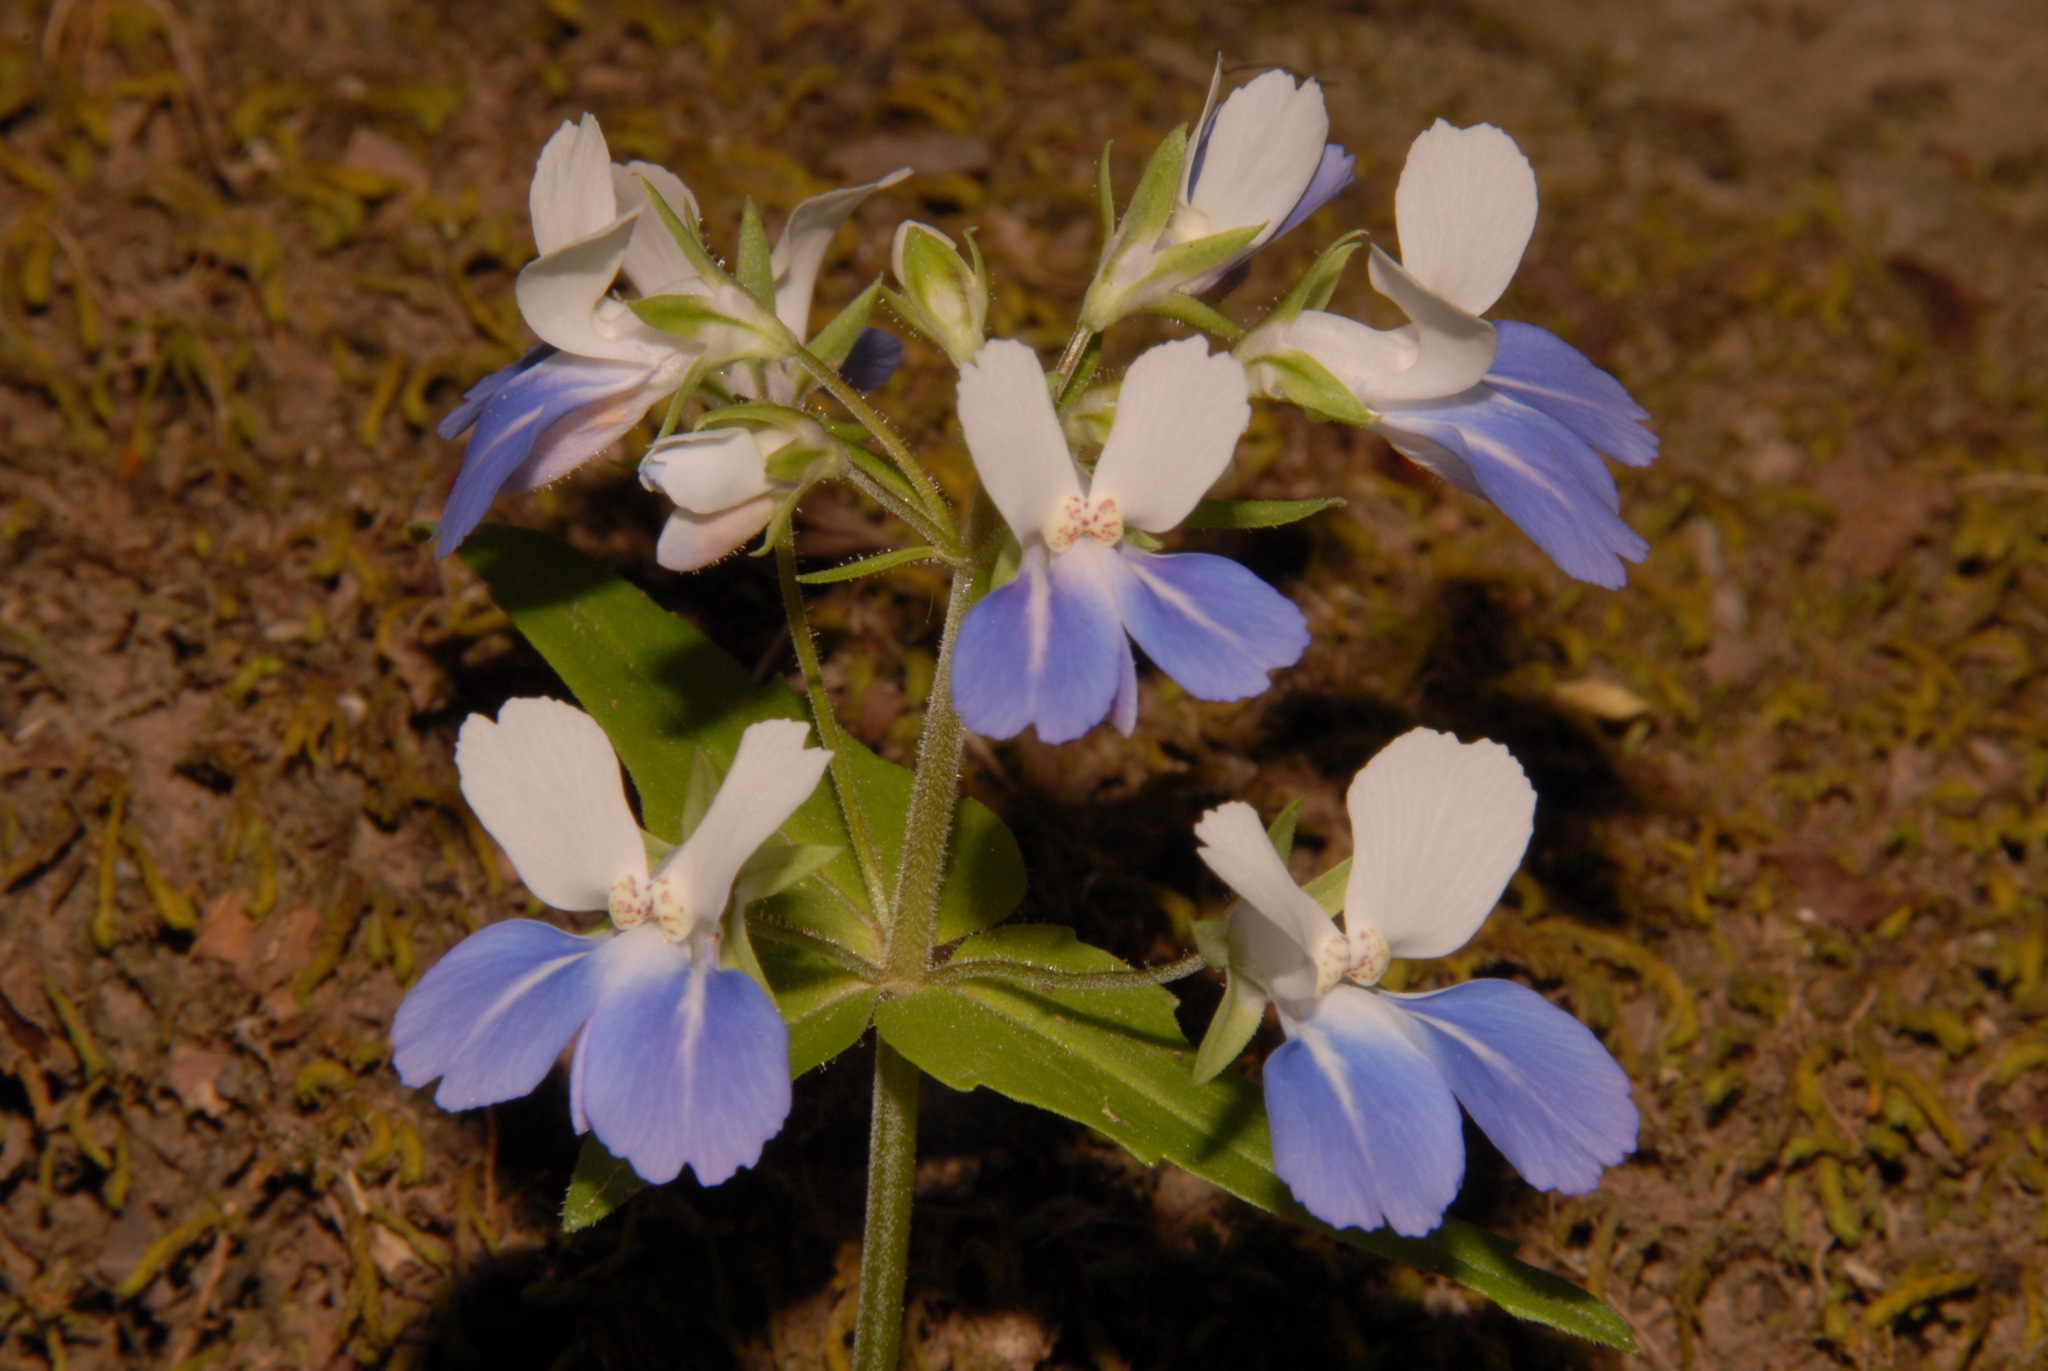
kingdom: Plantae
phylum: Tracheophyta
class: Magnoliopsida
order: Lamiales
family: Plantaginaceae
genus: Collinsia
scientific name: Collinsia verna
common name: Broad-leaved collinsia
